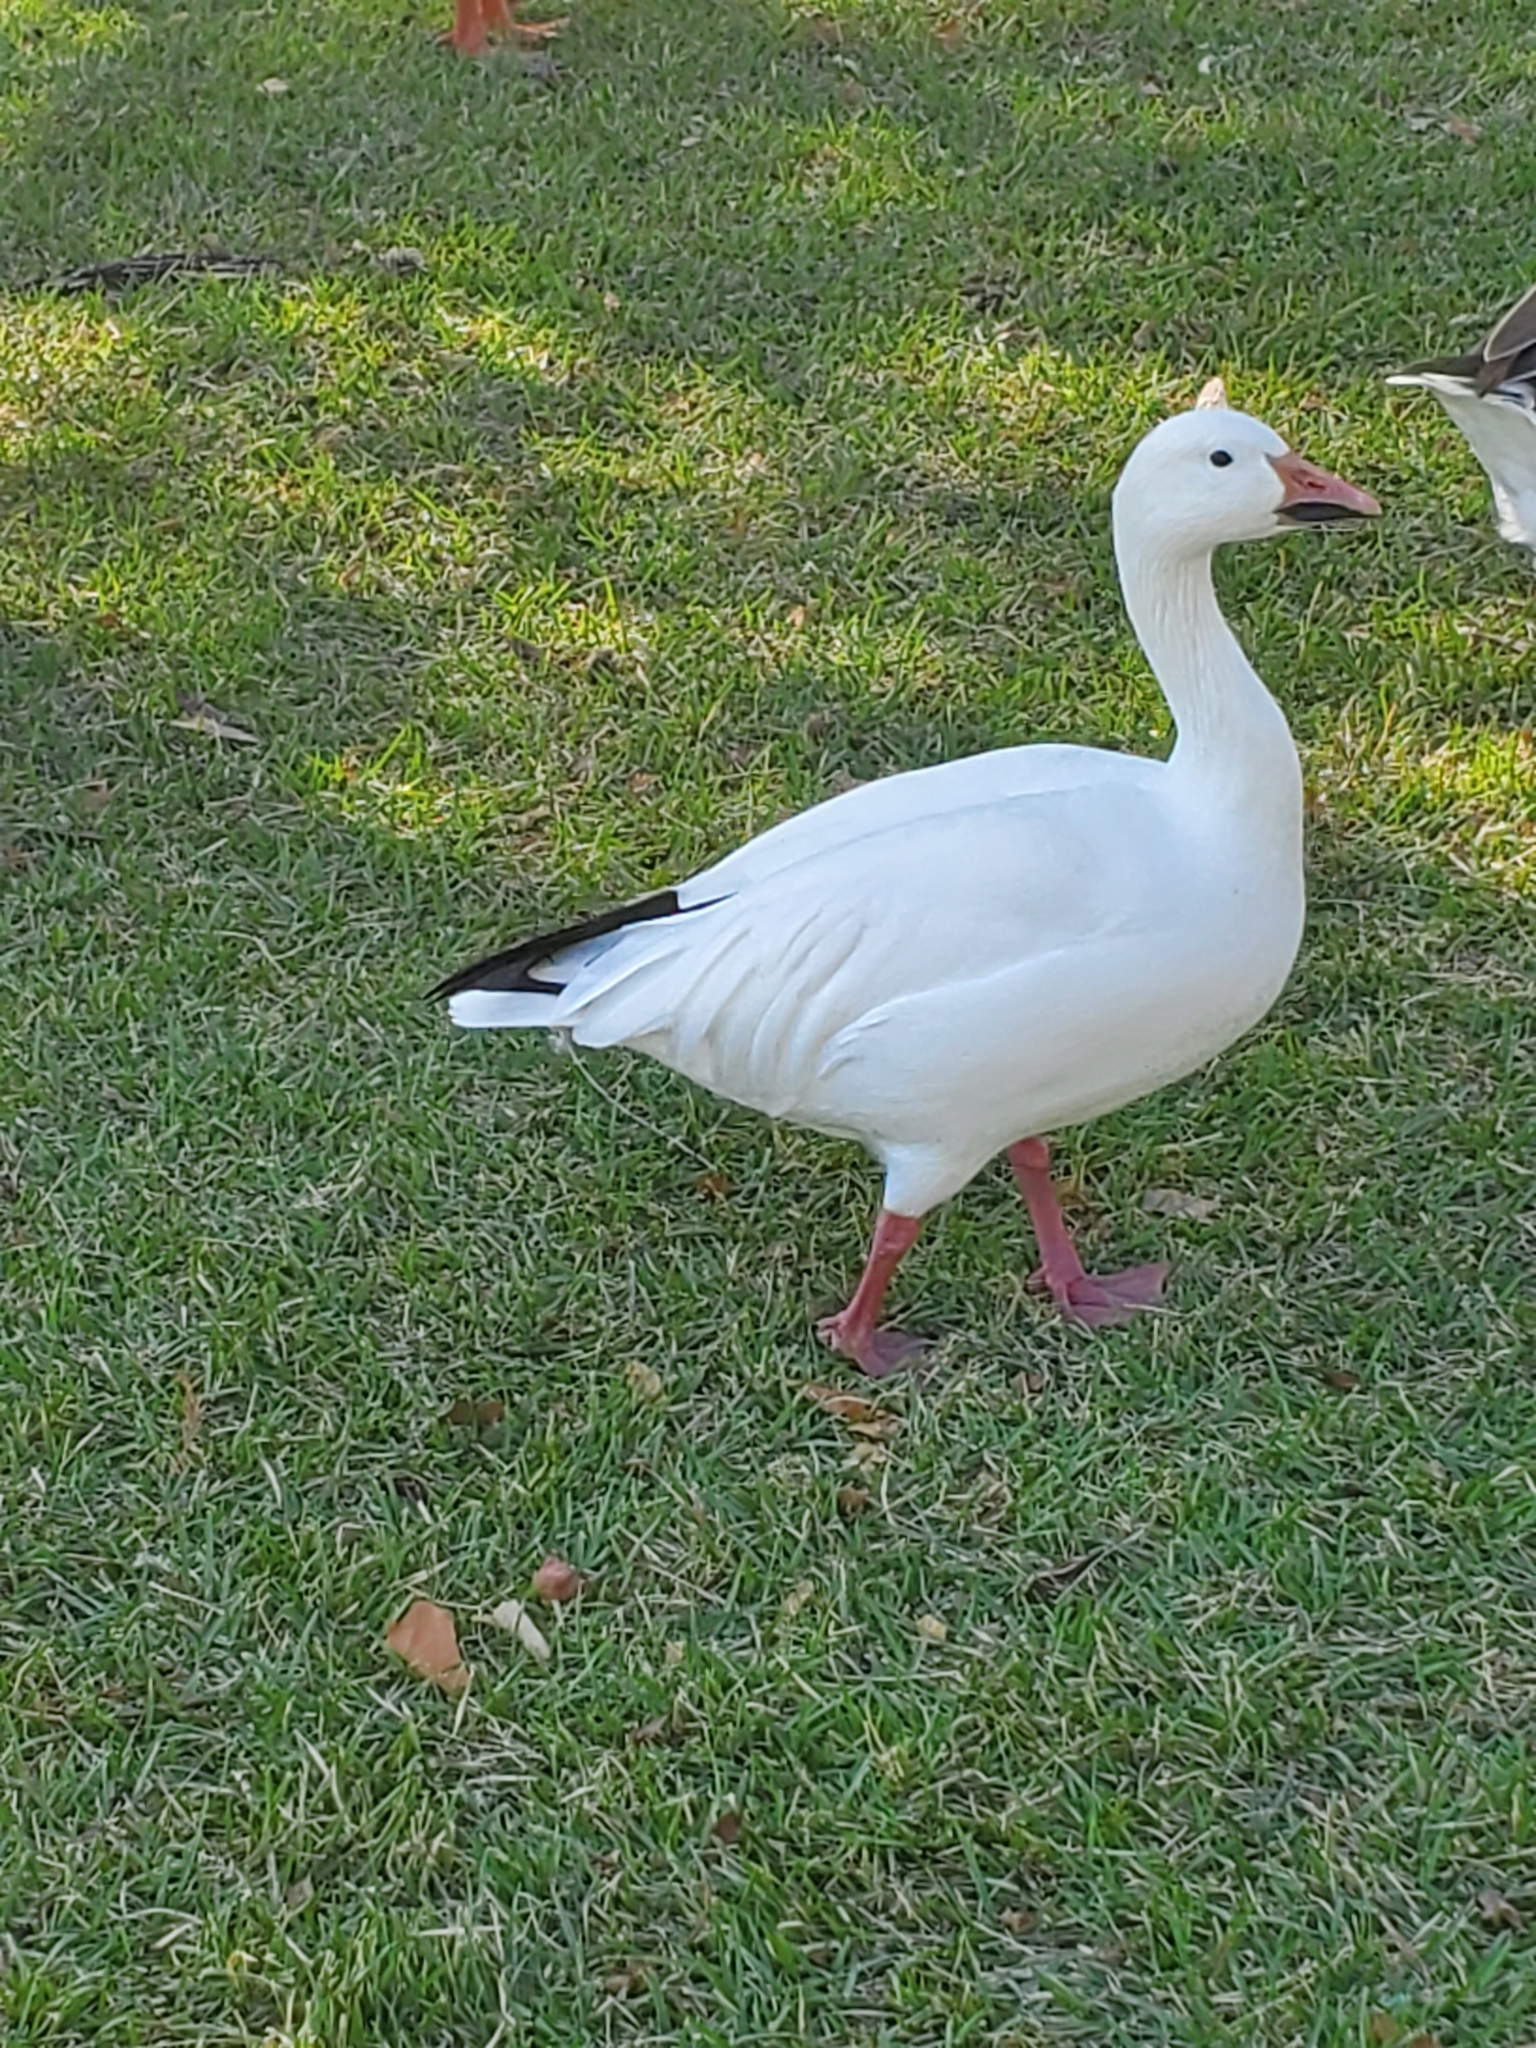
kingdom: Animalia
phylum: Chordata
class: Aves
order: Anseriformes
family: Anatidae
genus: Anser
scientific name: Anser caerulescens
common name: Snow goose
